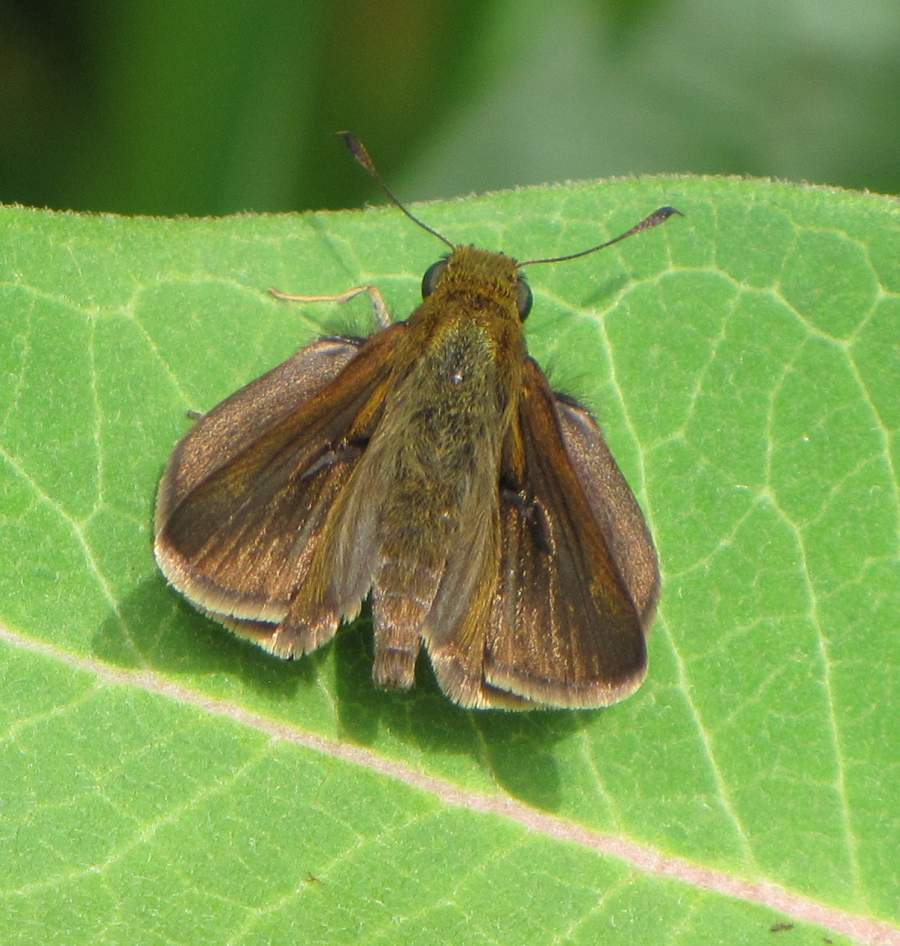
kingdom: Animalia
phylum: Arthropoda
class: Insecta
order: Lepidoptera
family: Hesperiidae
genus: Euphyes
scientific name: Euphyes vestris
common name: Dun skipper
